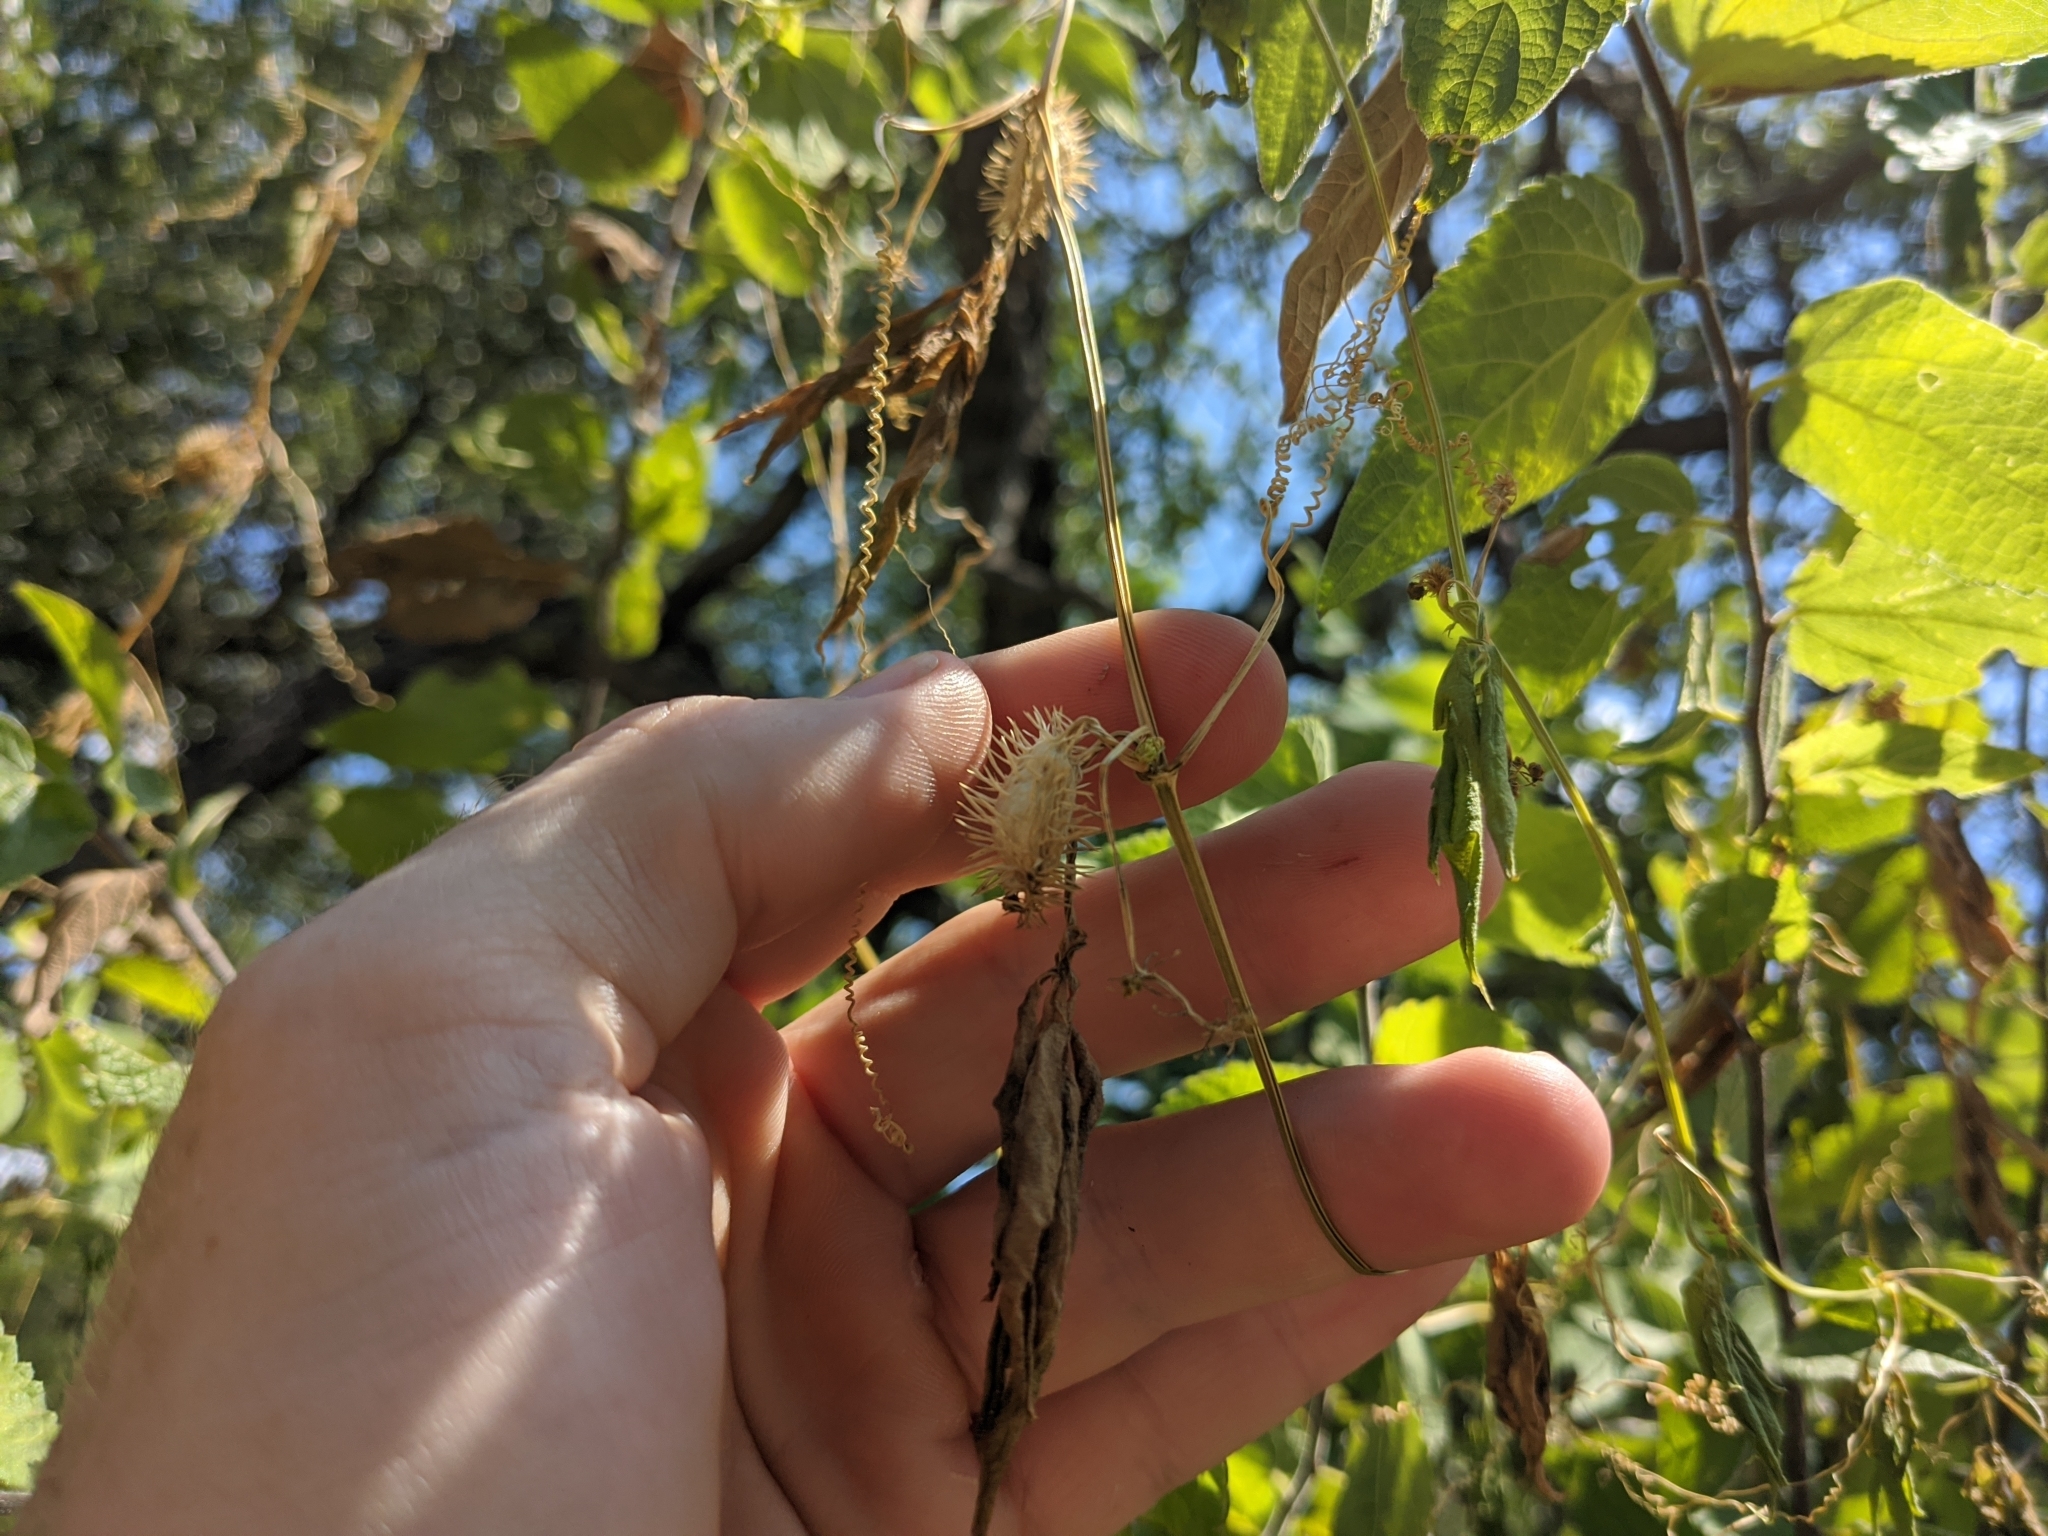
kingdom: Plantae
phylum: Tracheophyta
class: Magnoliopsida
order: Cucurbitales
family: Cucurbitaceae
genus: Cyclanthera
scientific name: Cyclanthera naudiniana
